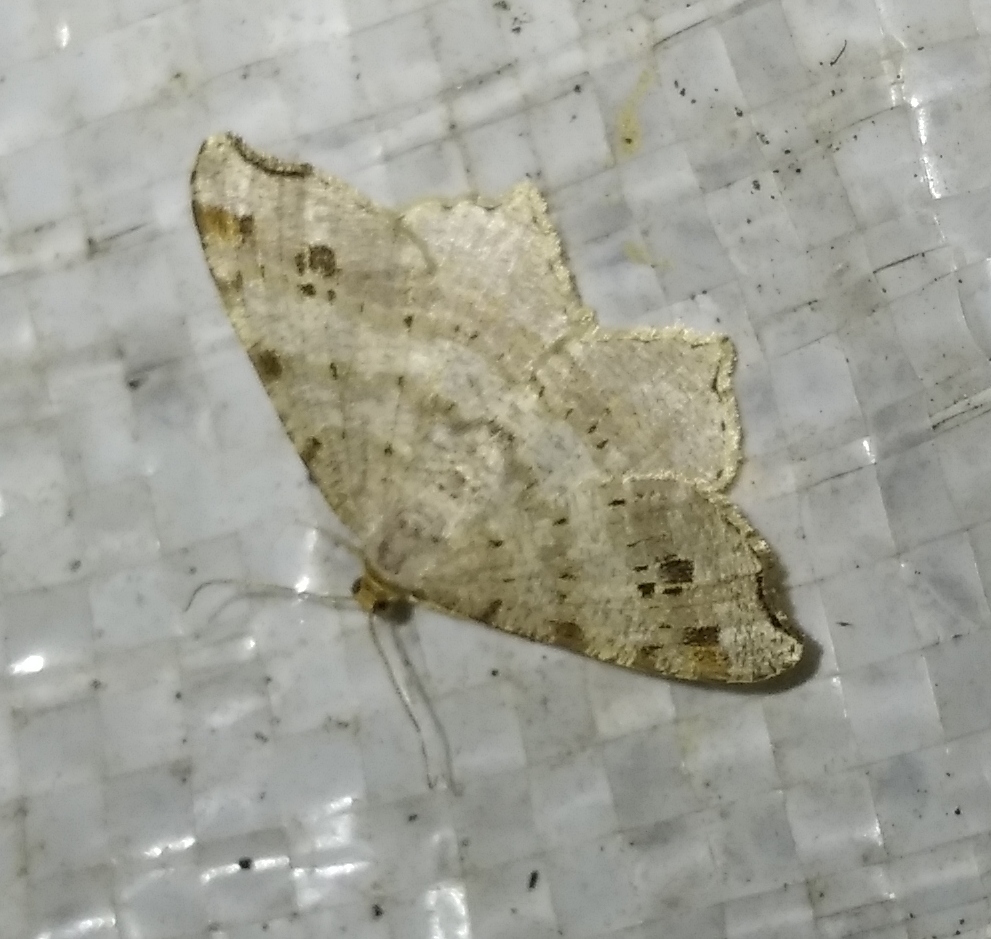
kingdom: Animalia
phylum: Arthropoda
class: Insecta
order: Lepidoptera
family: Geometridae
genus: Macaria
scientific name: Macaria alternata
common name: Sharp-angled peacock
